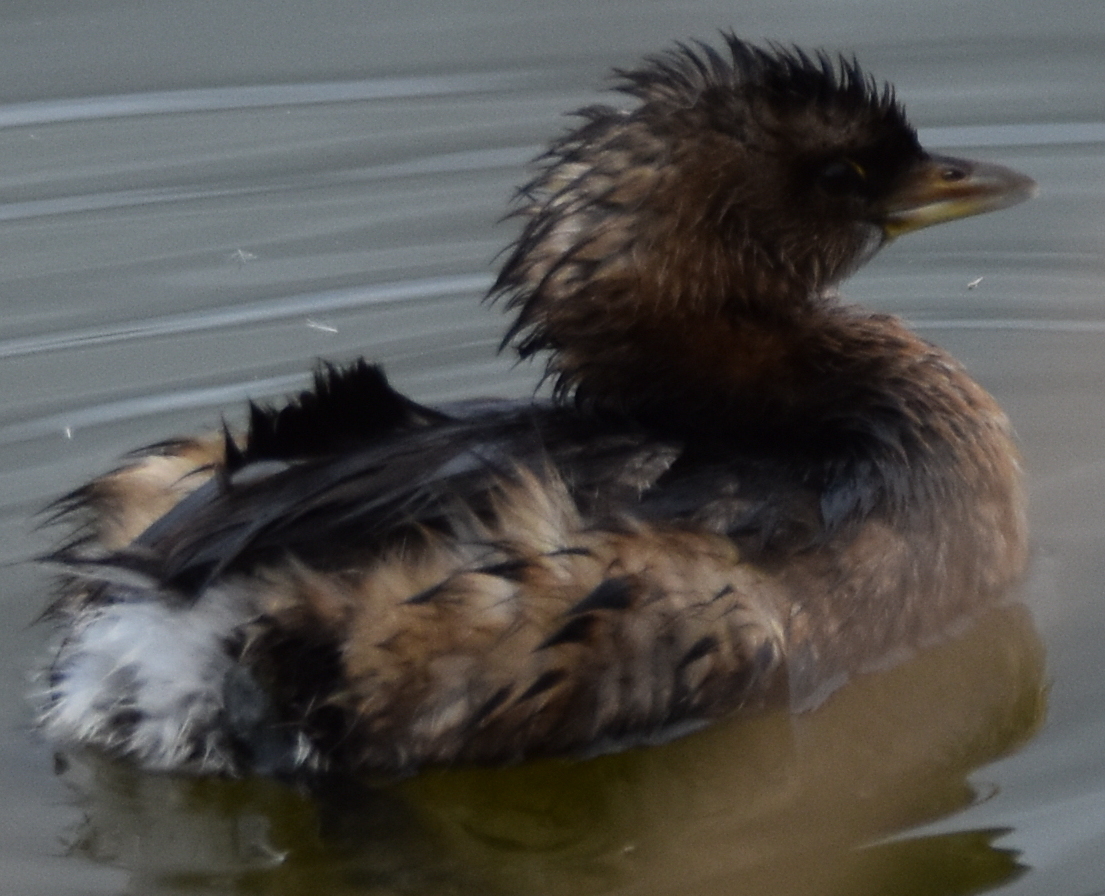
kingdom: Animalia
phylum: Chordata
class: Aves
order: Podicipediformes
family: Podicipedidae
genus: Podilymbus
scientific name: Podilymbus podiceps
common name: Pied-billed grebe
